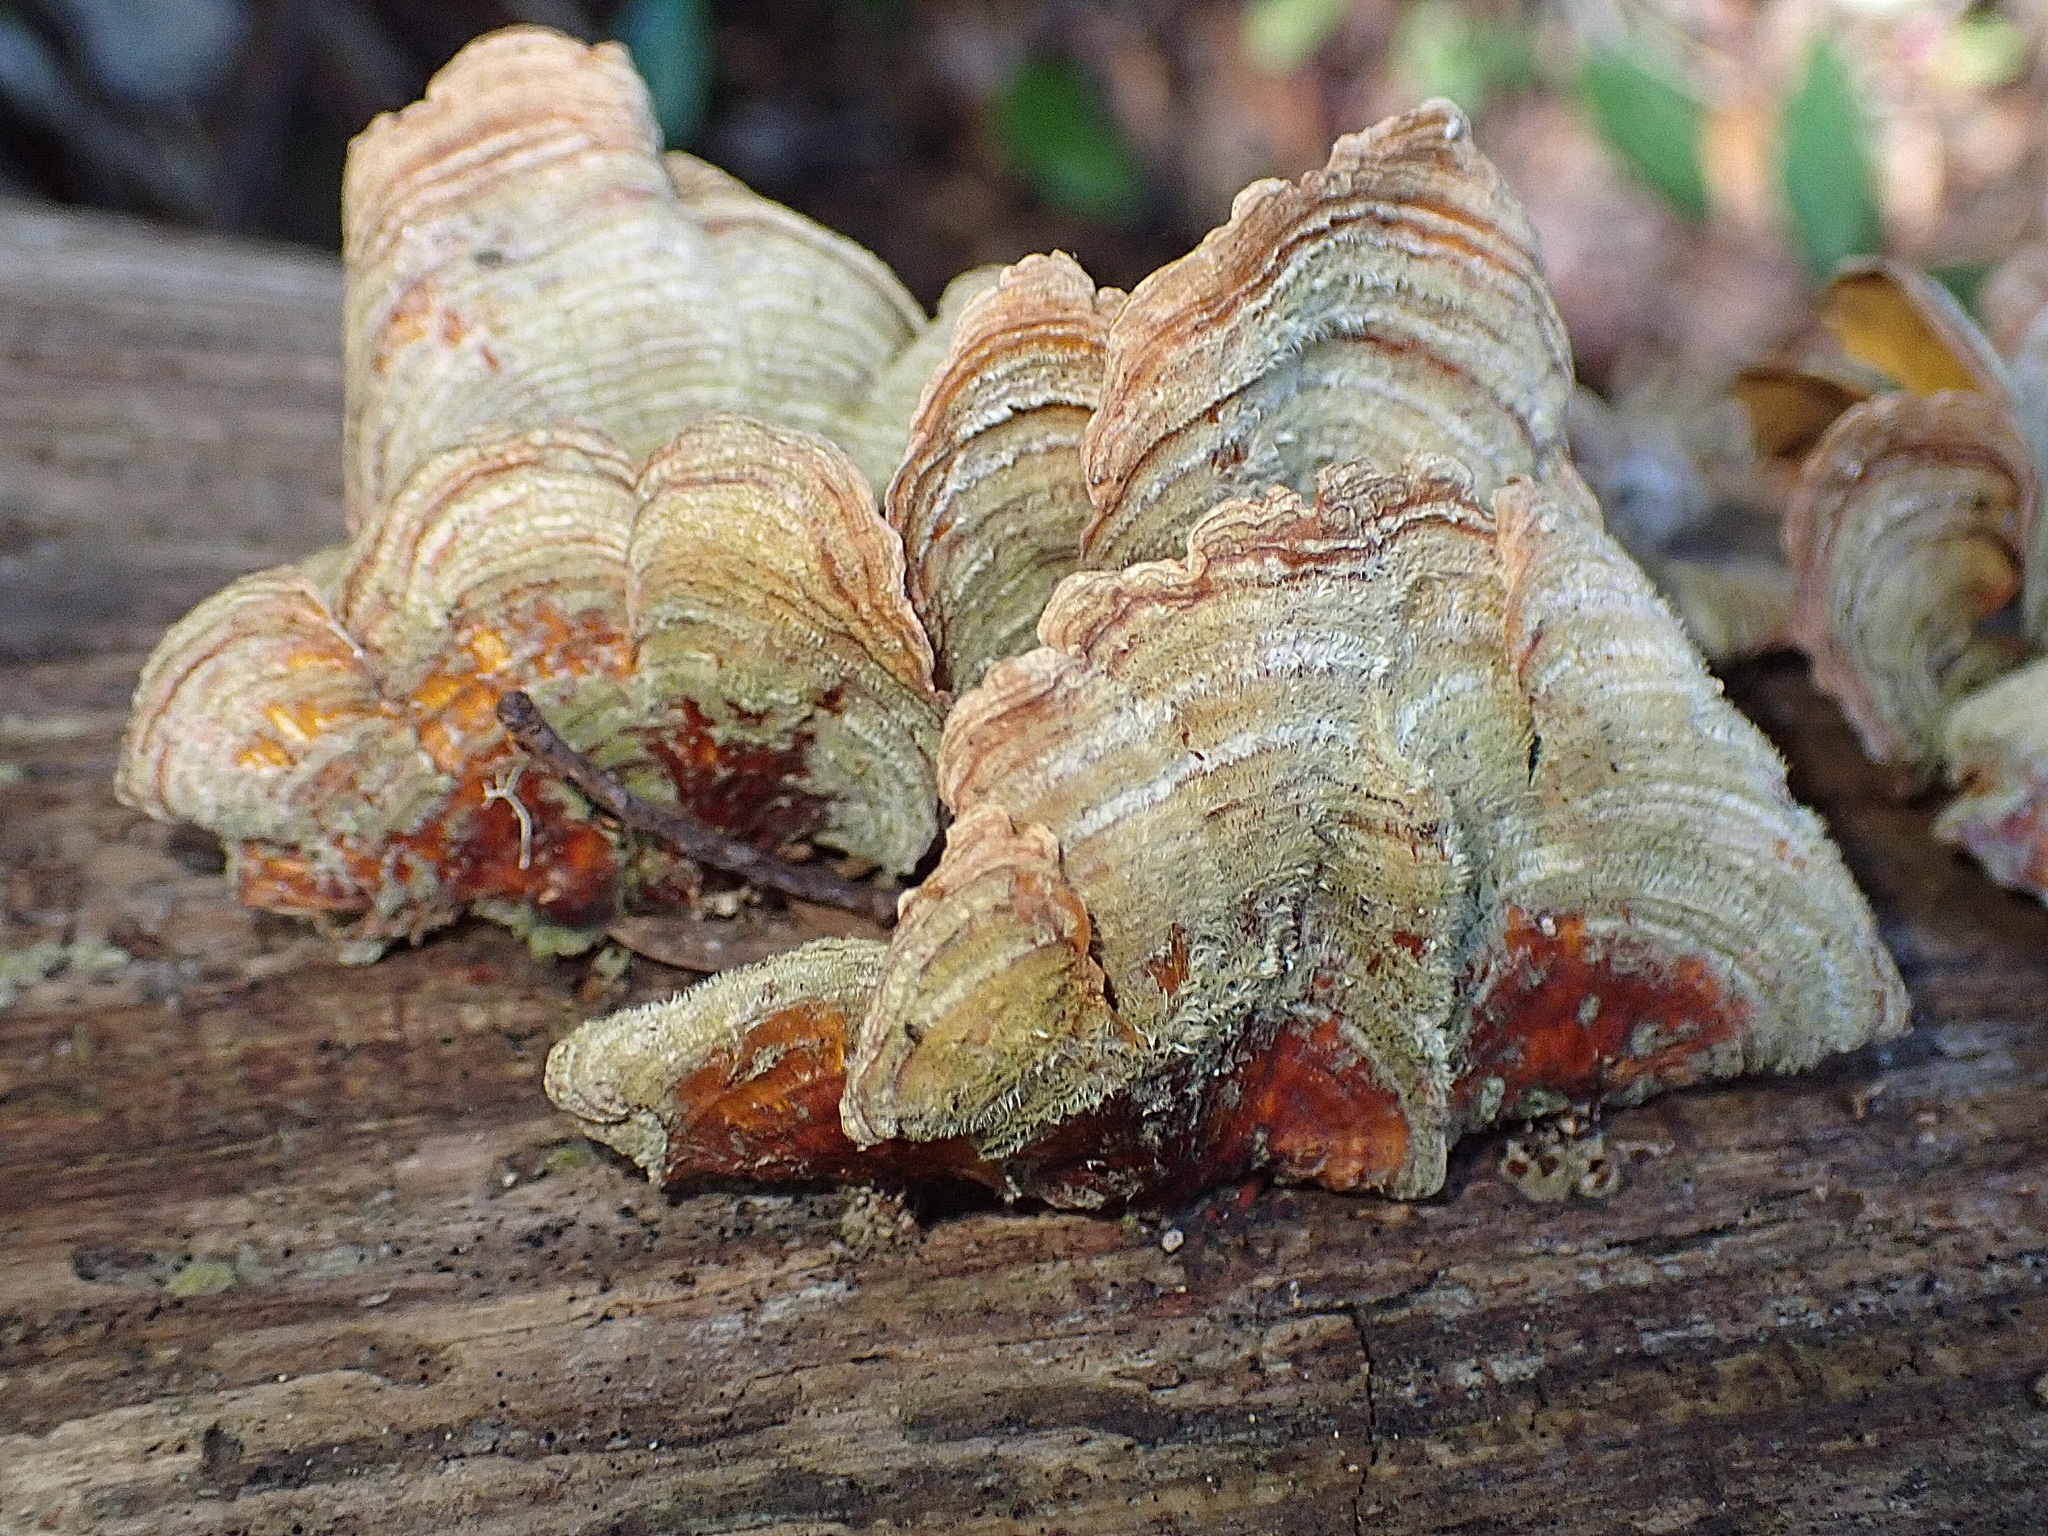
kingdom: Fungi
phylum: Basidiomycota
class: Agaricomycetes
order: Russulales
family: Stereaceae
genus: Stereum
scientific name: Stereum versicolor
